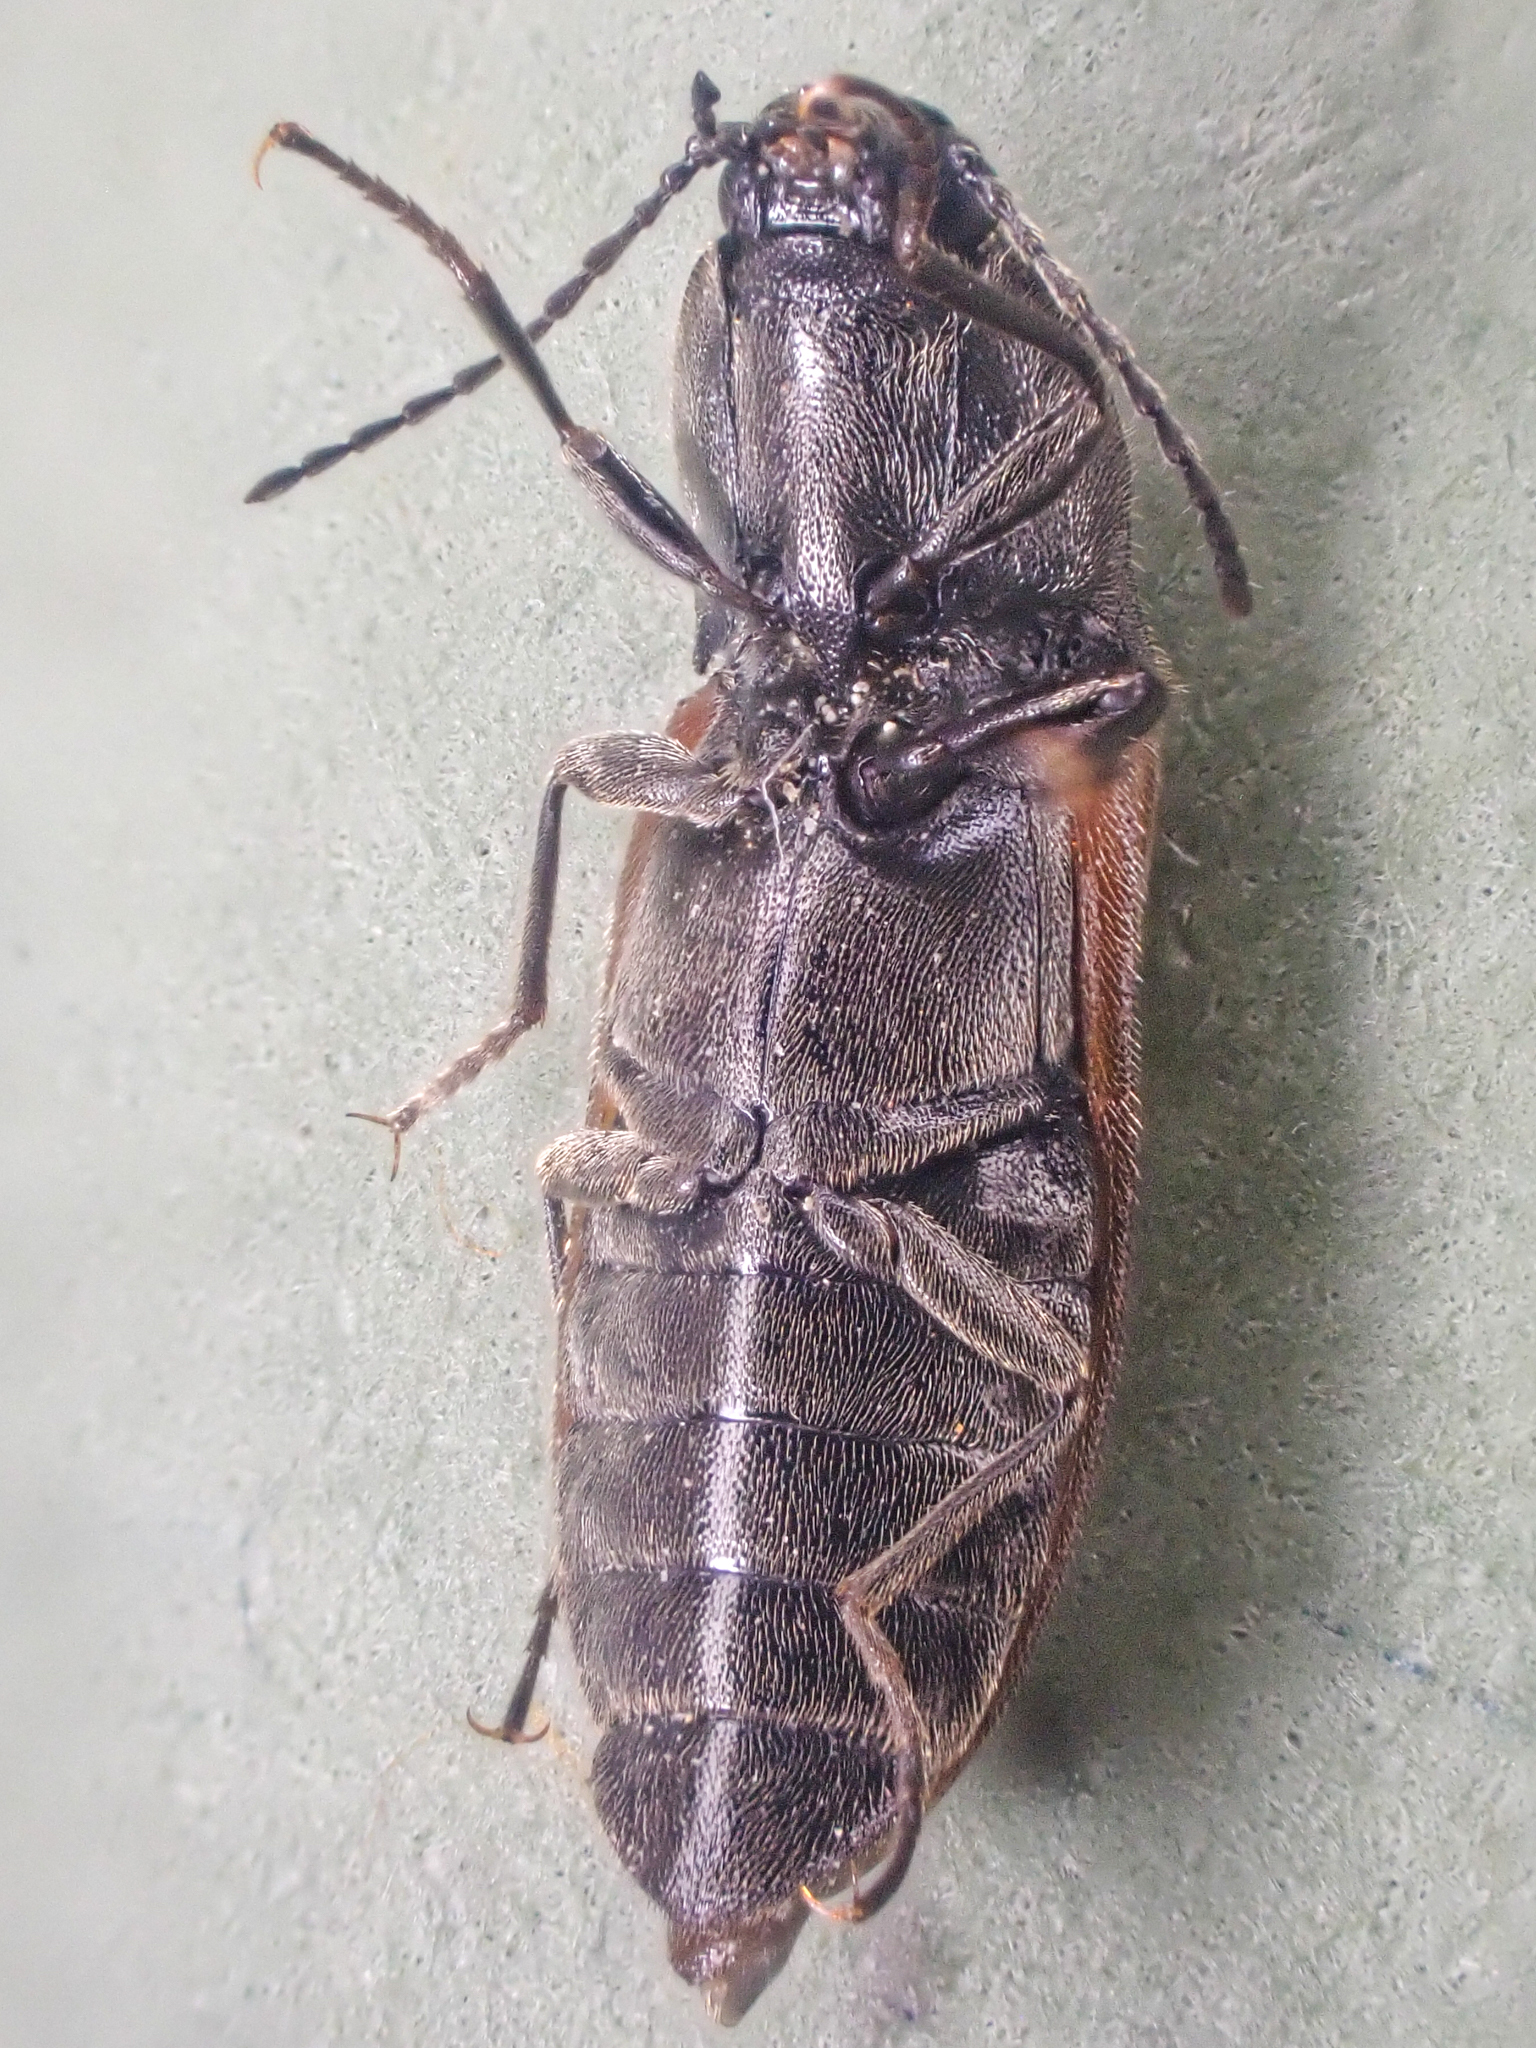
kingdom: Animalia
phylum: Arthropoda
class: Insecta
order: Coleoptera
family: Elateridae
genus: Pseudanostirus
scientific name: Pseudanostirus ochreipennis
